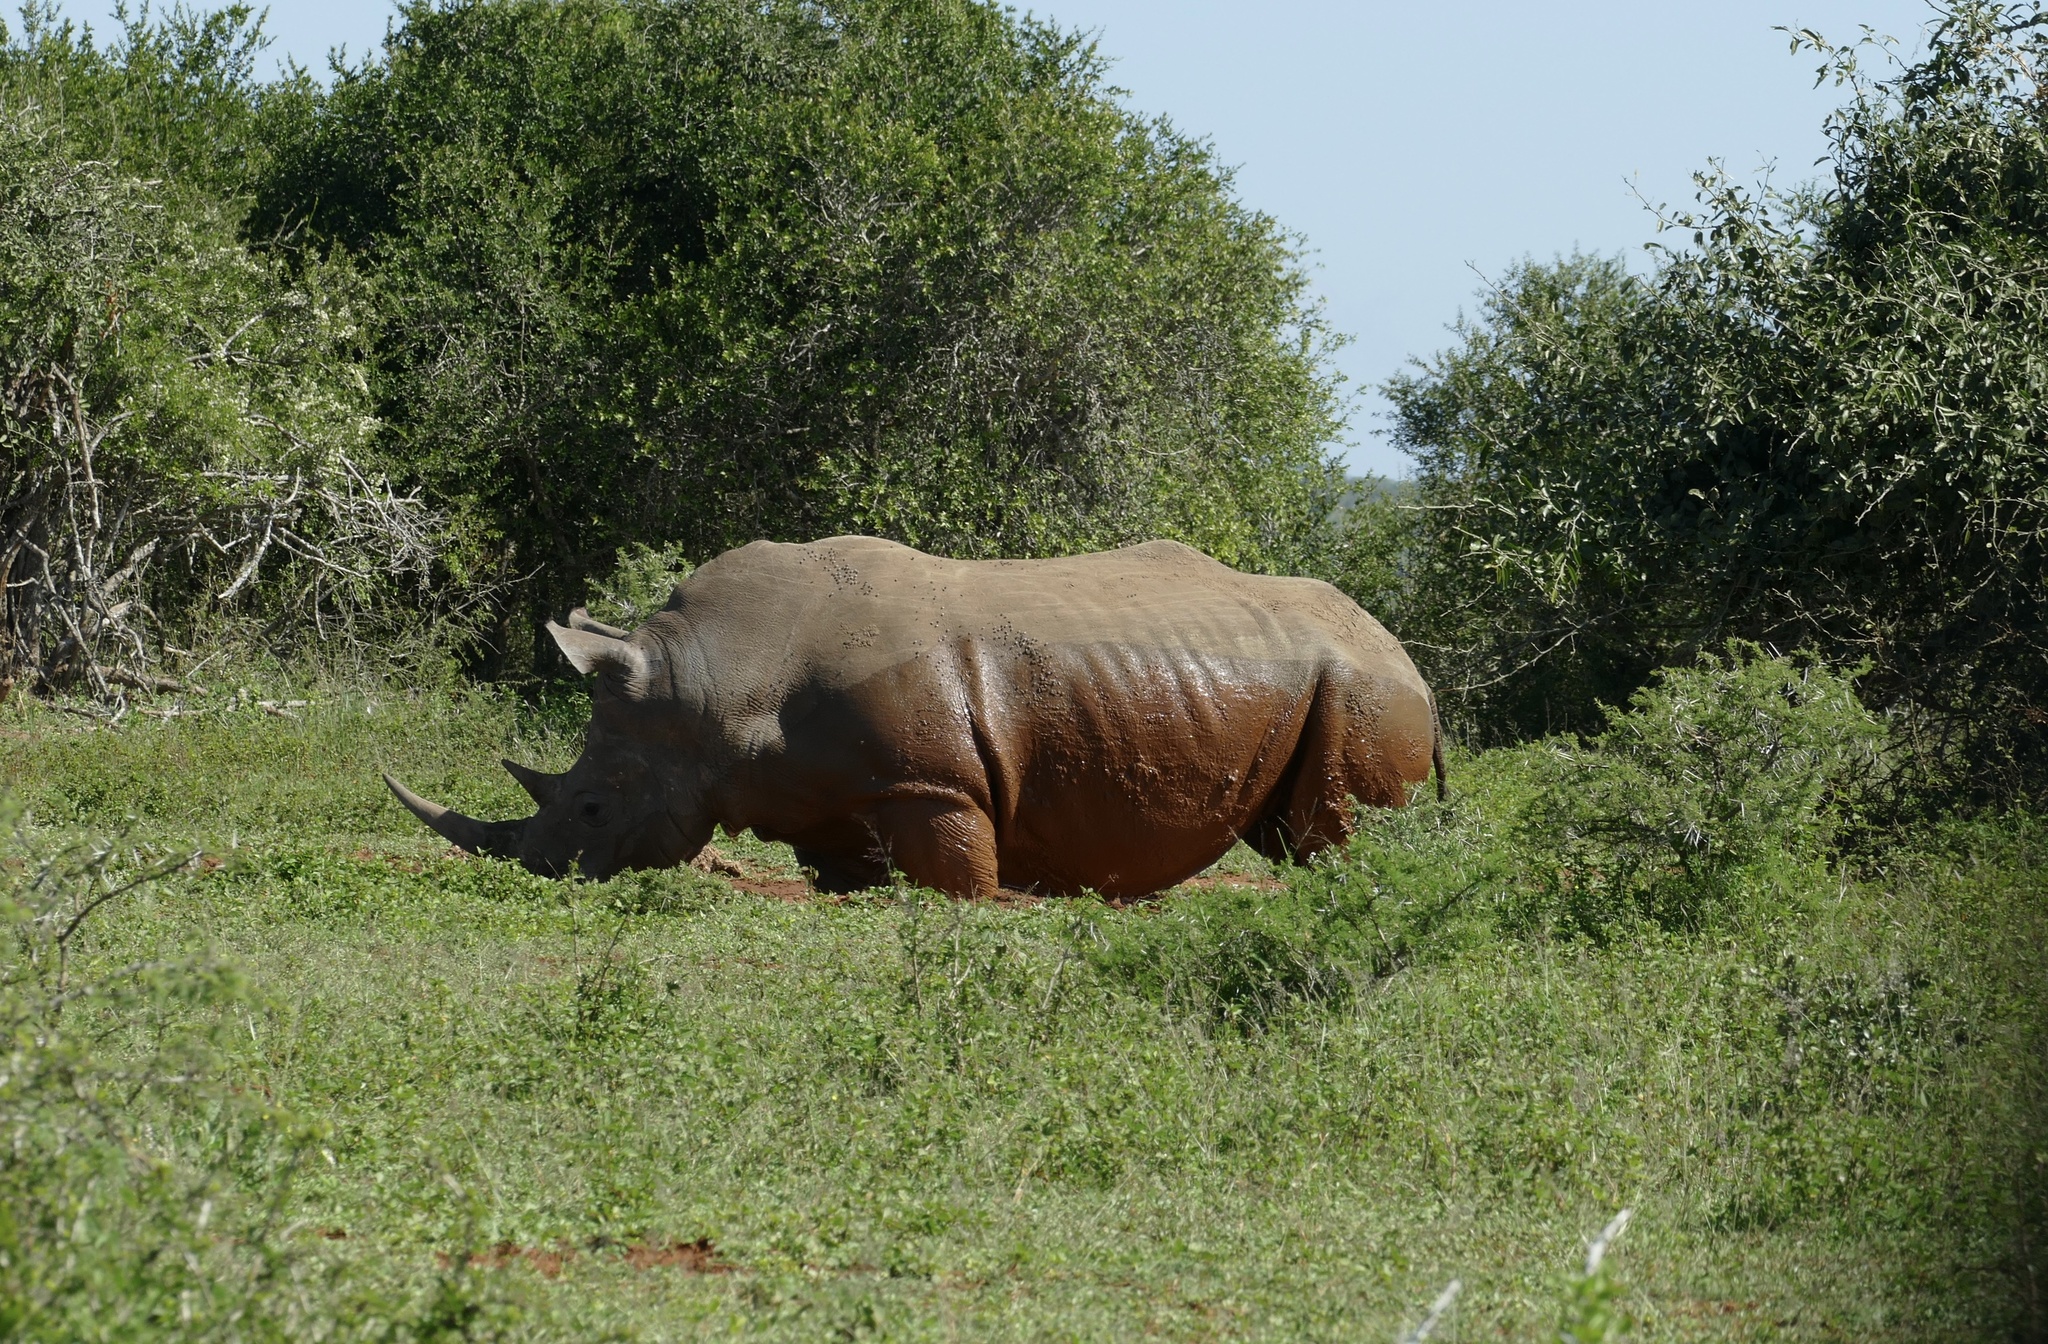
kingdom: Animalia
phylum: Chordata
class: Mammalia
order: Perissodactyla
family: Rhinocerotidae
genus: Ceratotherium
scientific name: Ceratotherium simum
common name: White rhinoceros
